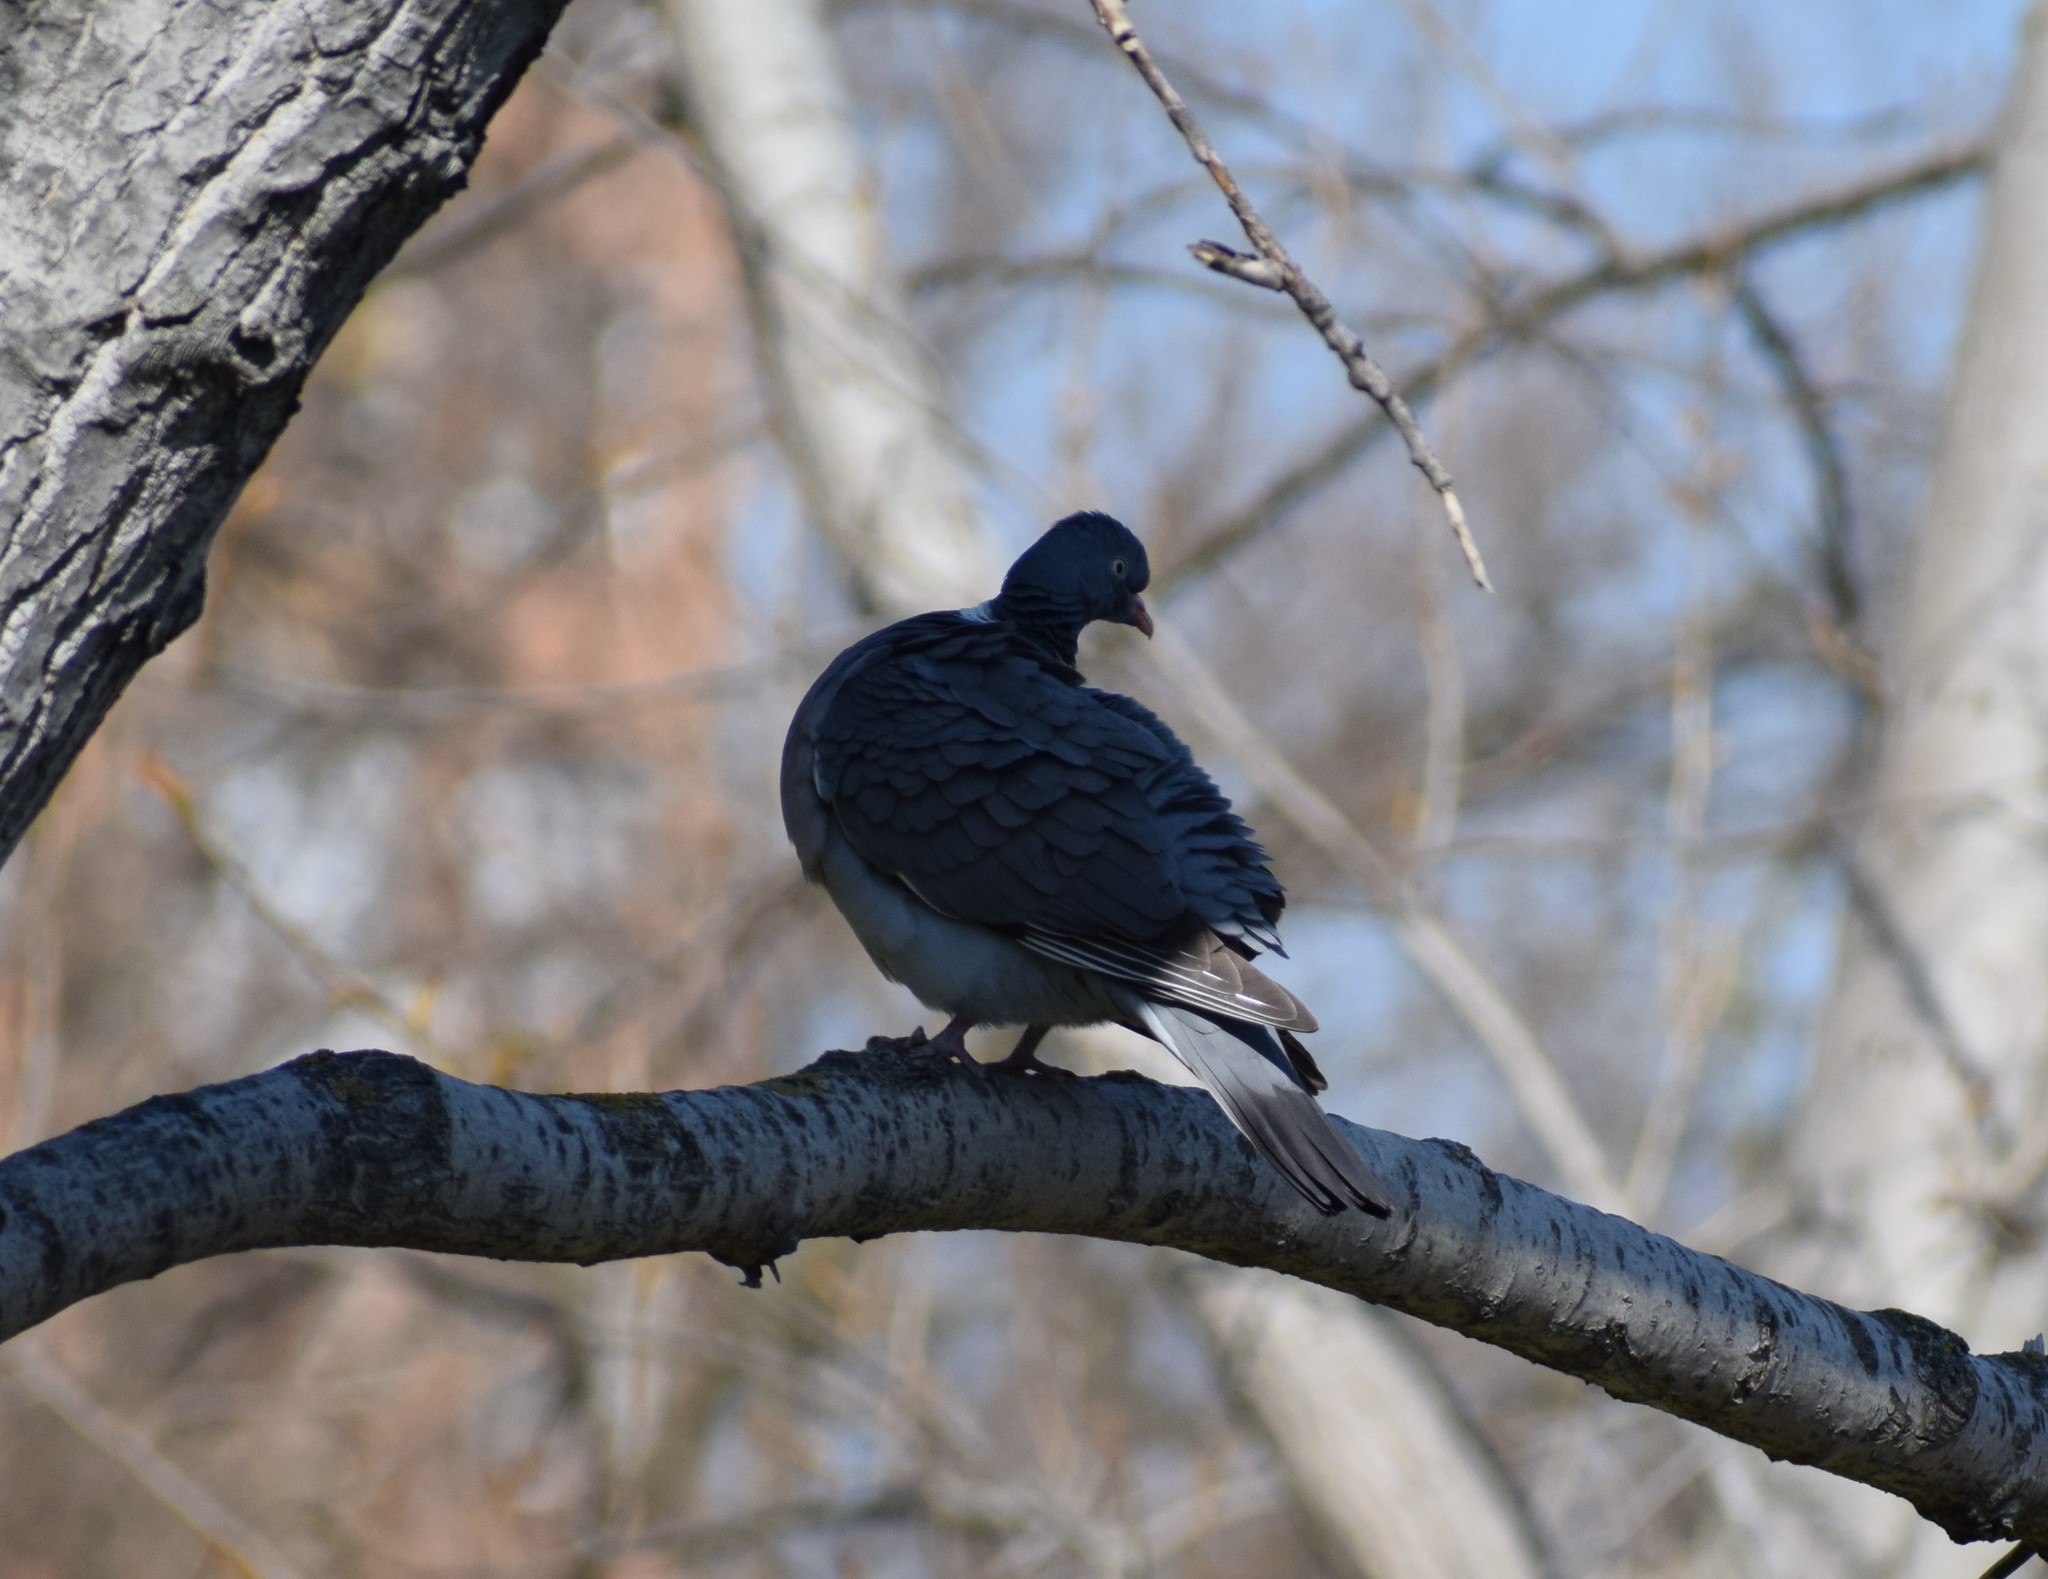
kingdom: Animalia
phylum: Chordata
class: Aves
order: Columbiformes
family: Columbidae
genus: Columba
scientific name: Columba palumbus
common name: Common wood pigeon
